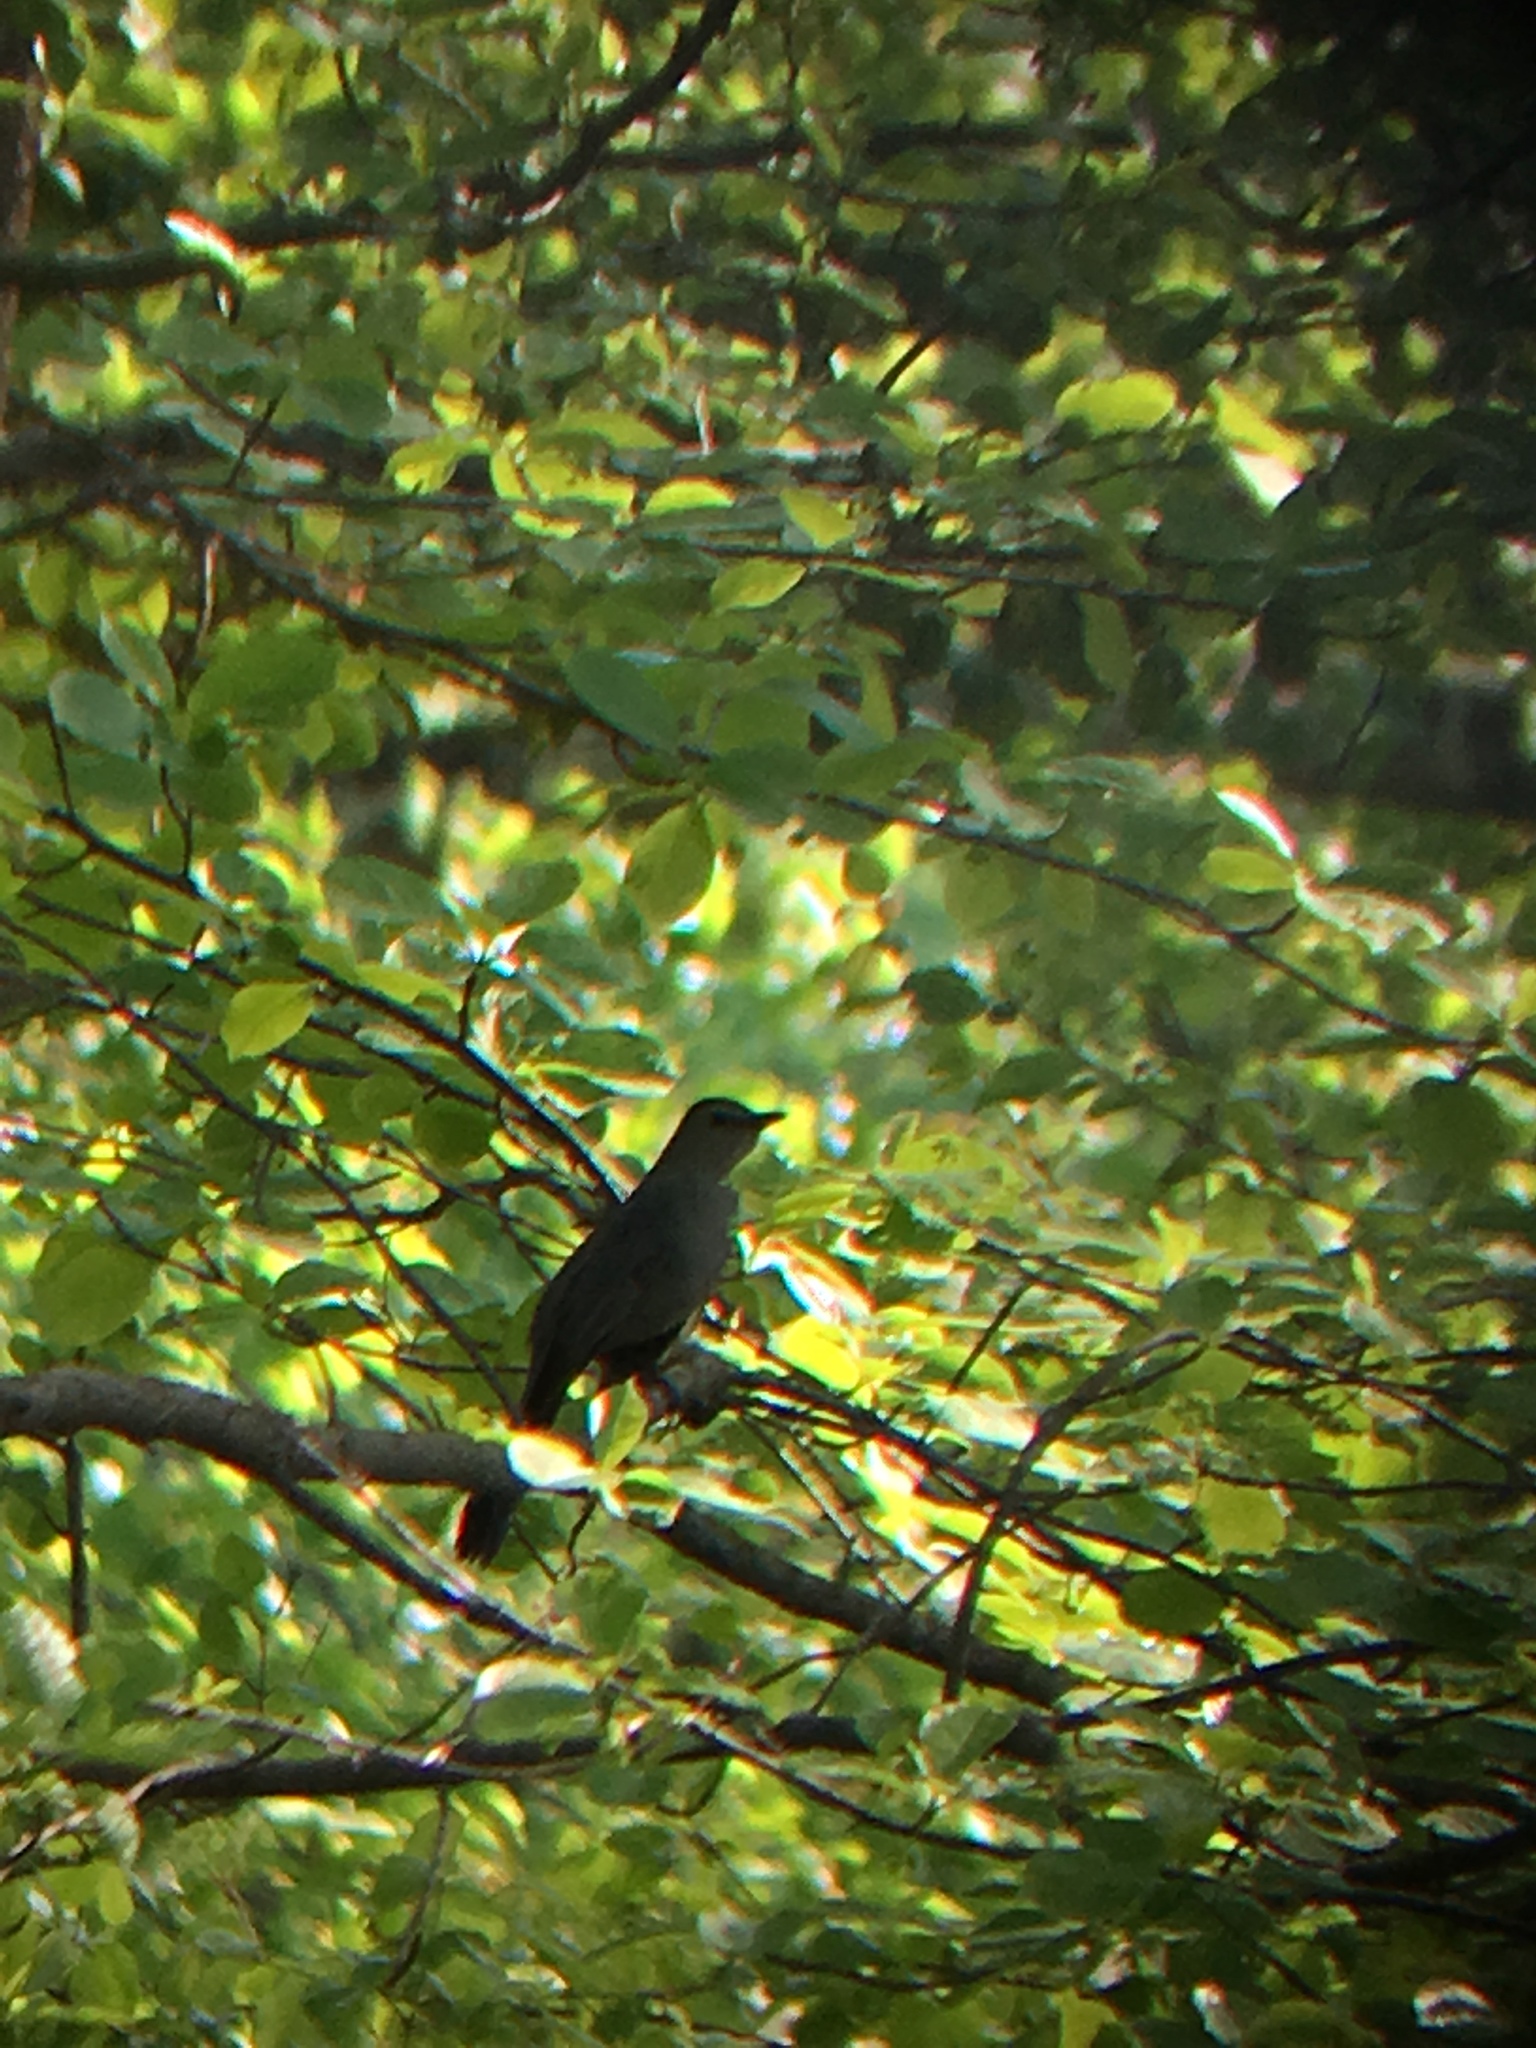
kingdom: Animalia
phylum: Chordata
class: Aves
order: Passeriformes
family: Mimidae
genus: Dumetella
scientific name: Dumetella carolinensis
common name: Gray catbird
